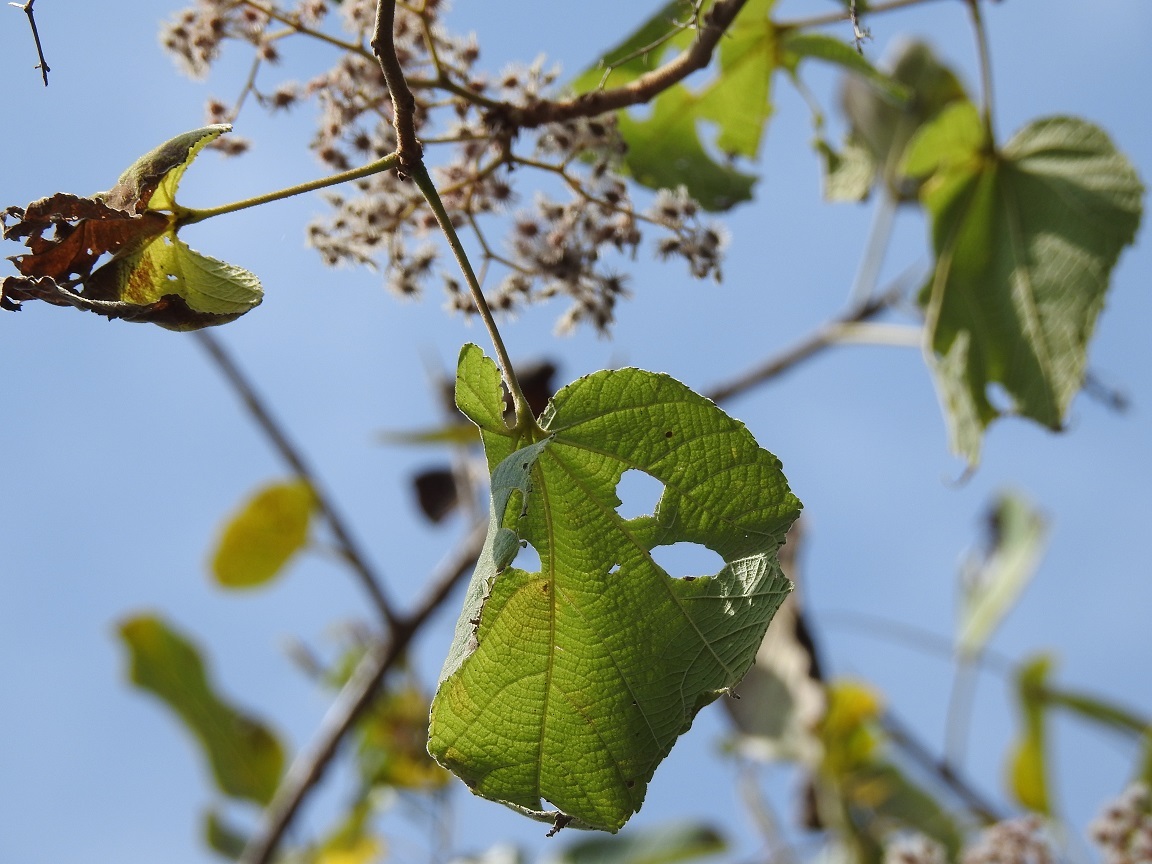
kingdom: Plantae
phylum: Tracheophyta
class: Magnoliopsida
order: Malvales
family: Malvaceae
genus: Heliocarpus
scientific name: Heliocarpus terebinthinaceus
